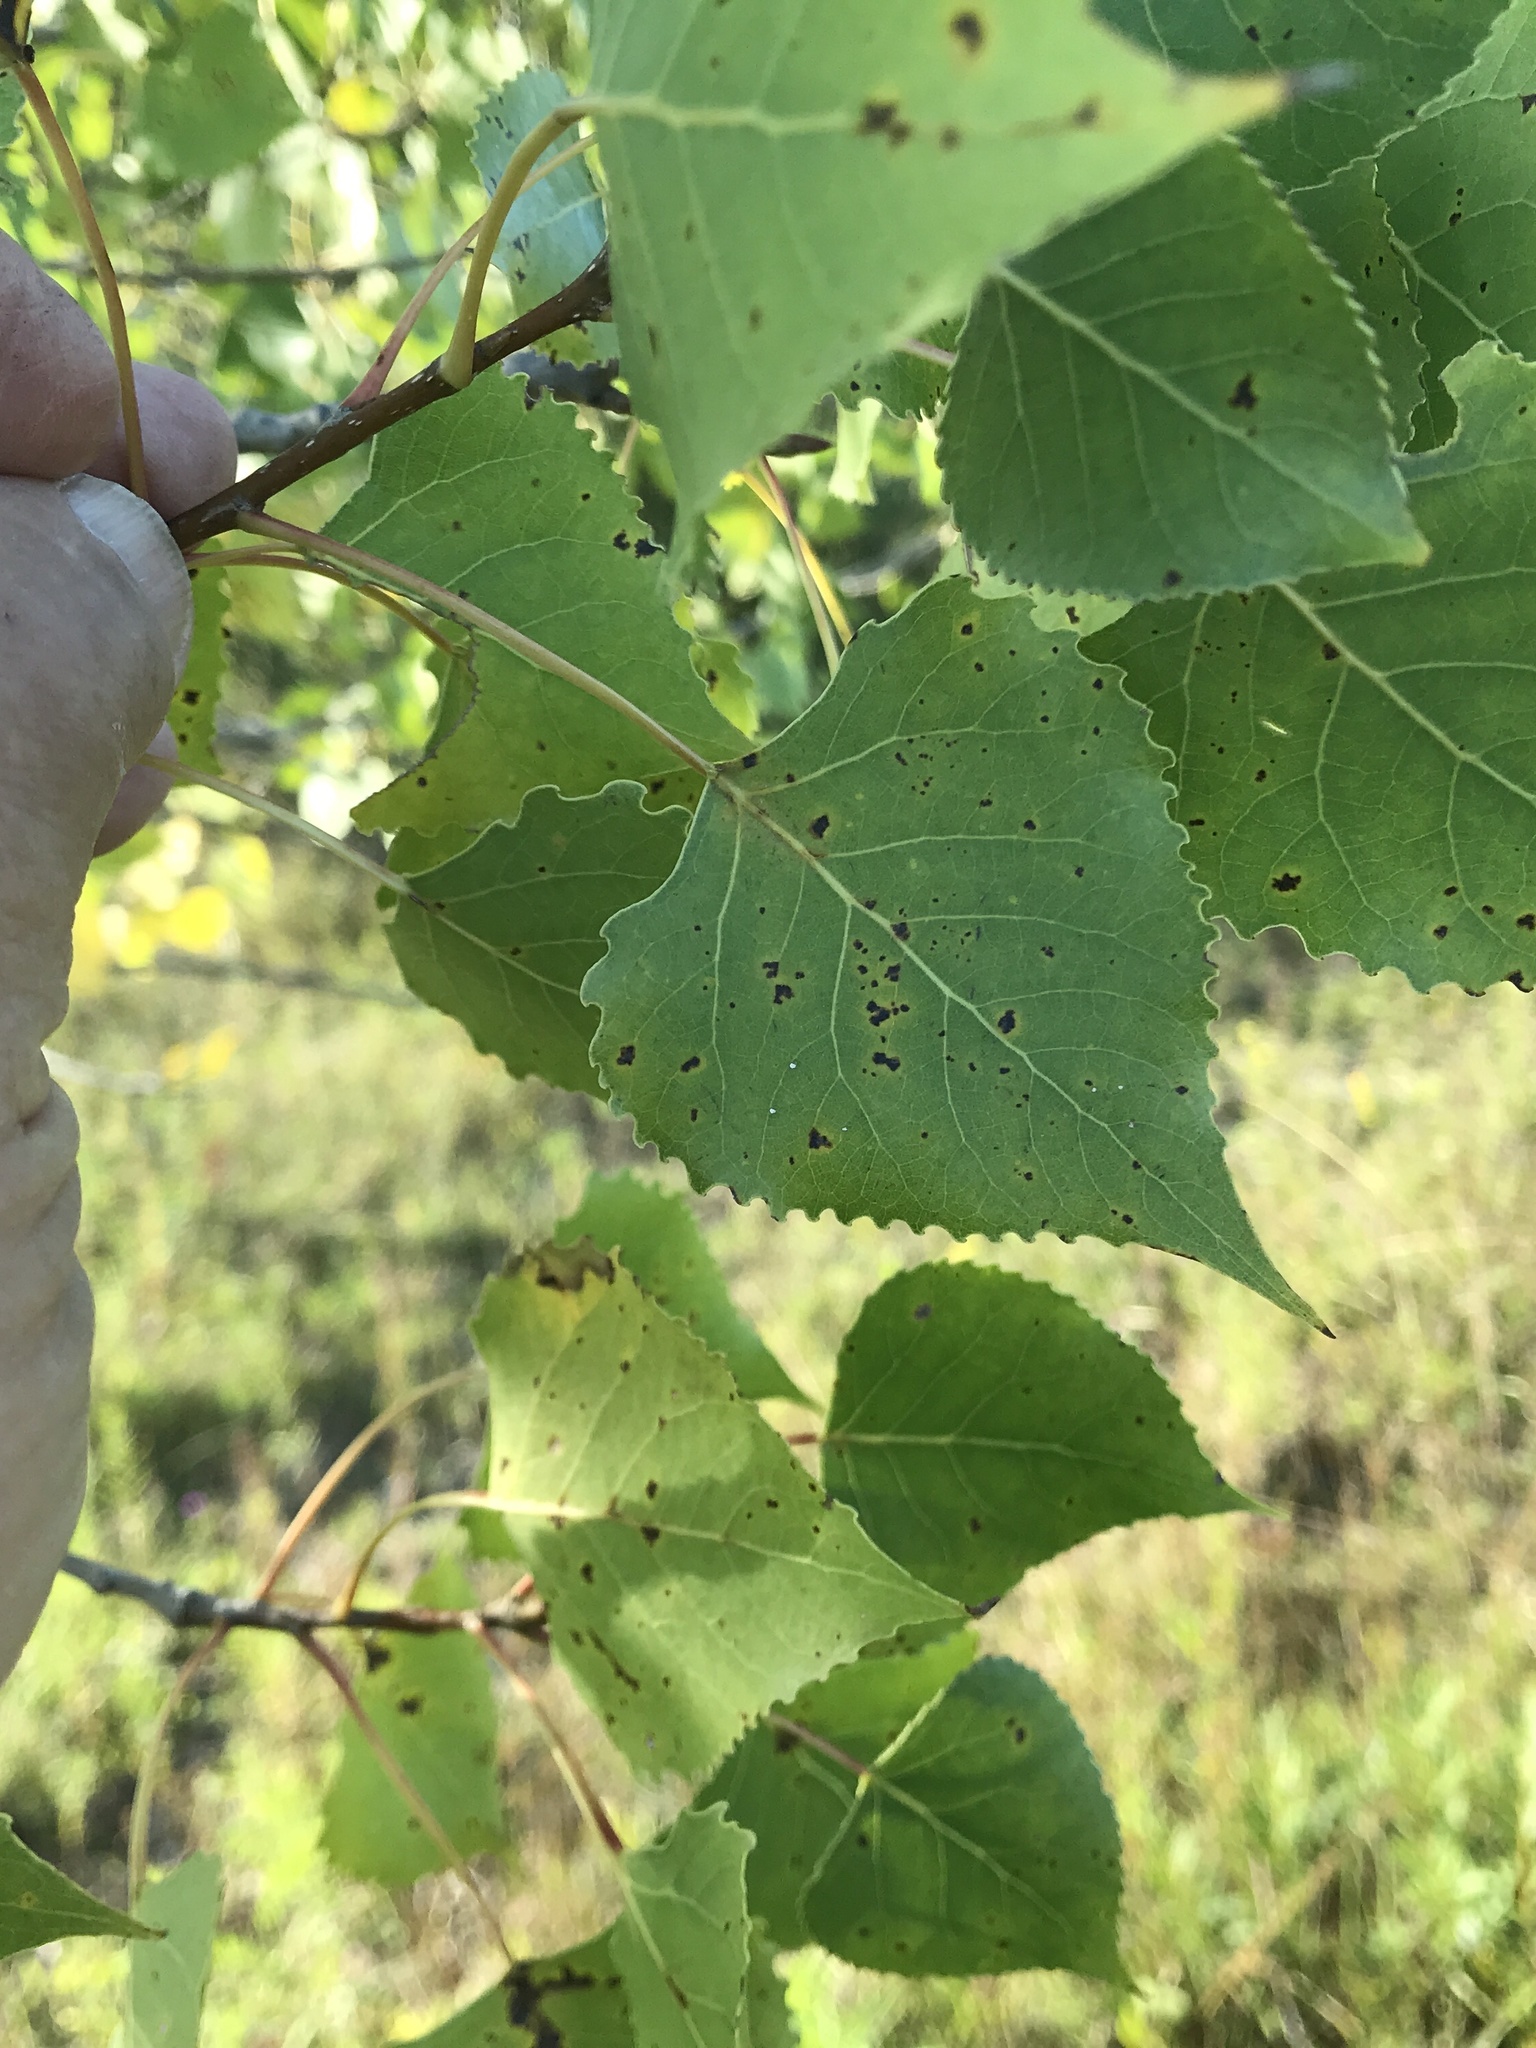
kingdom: Plantae
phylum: Tracheophyta
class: Magnoliopsida
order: Malpighiales
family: Salicaceae
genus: Populus
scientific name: Populus deltoides
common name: Eastern cottonwood
